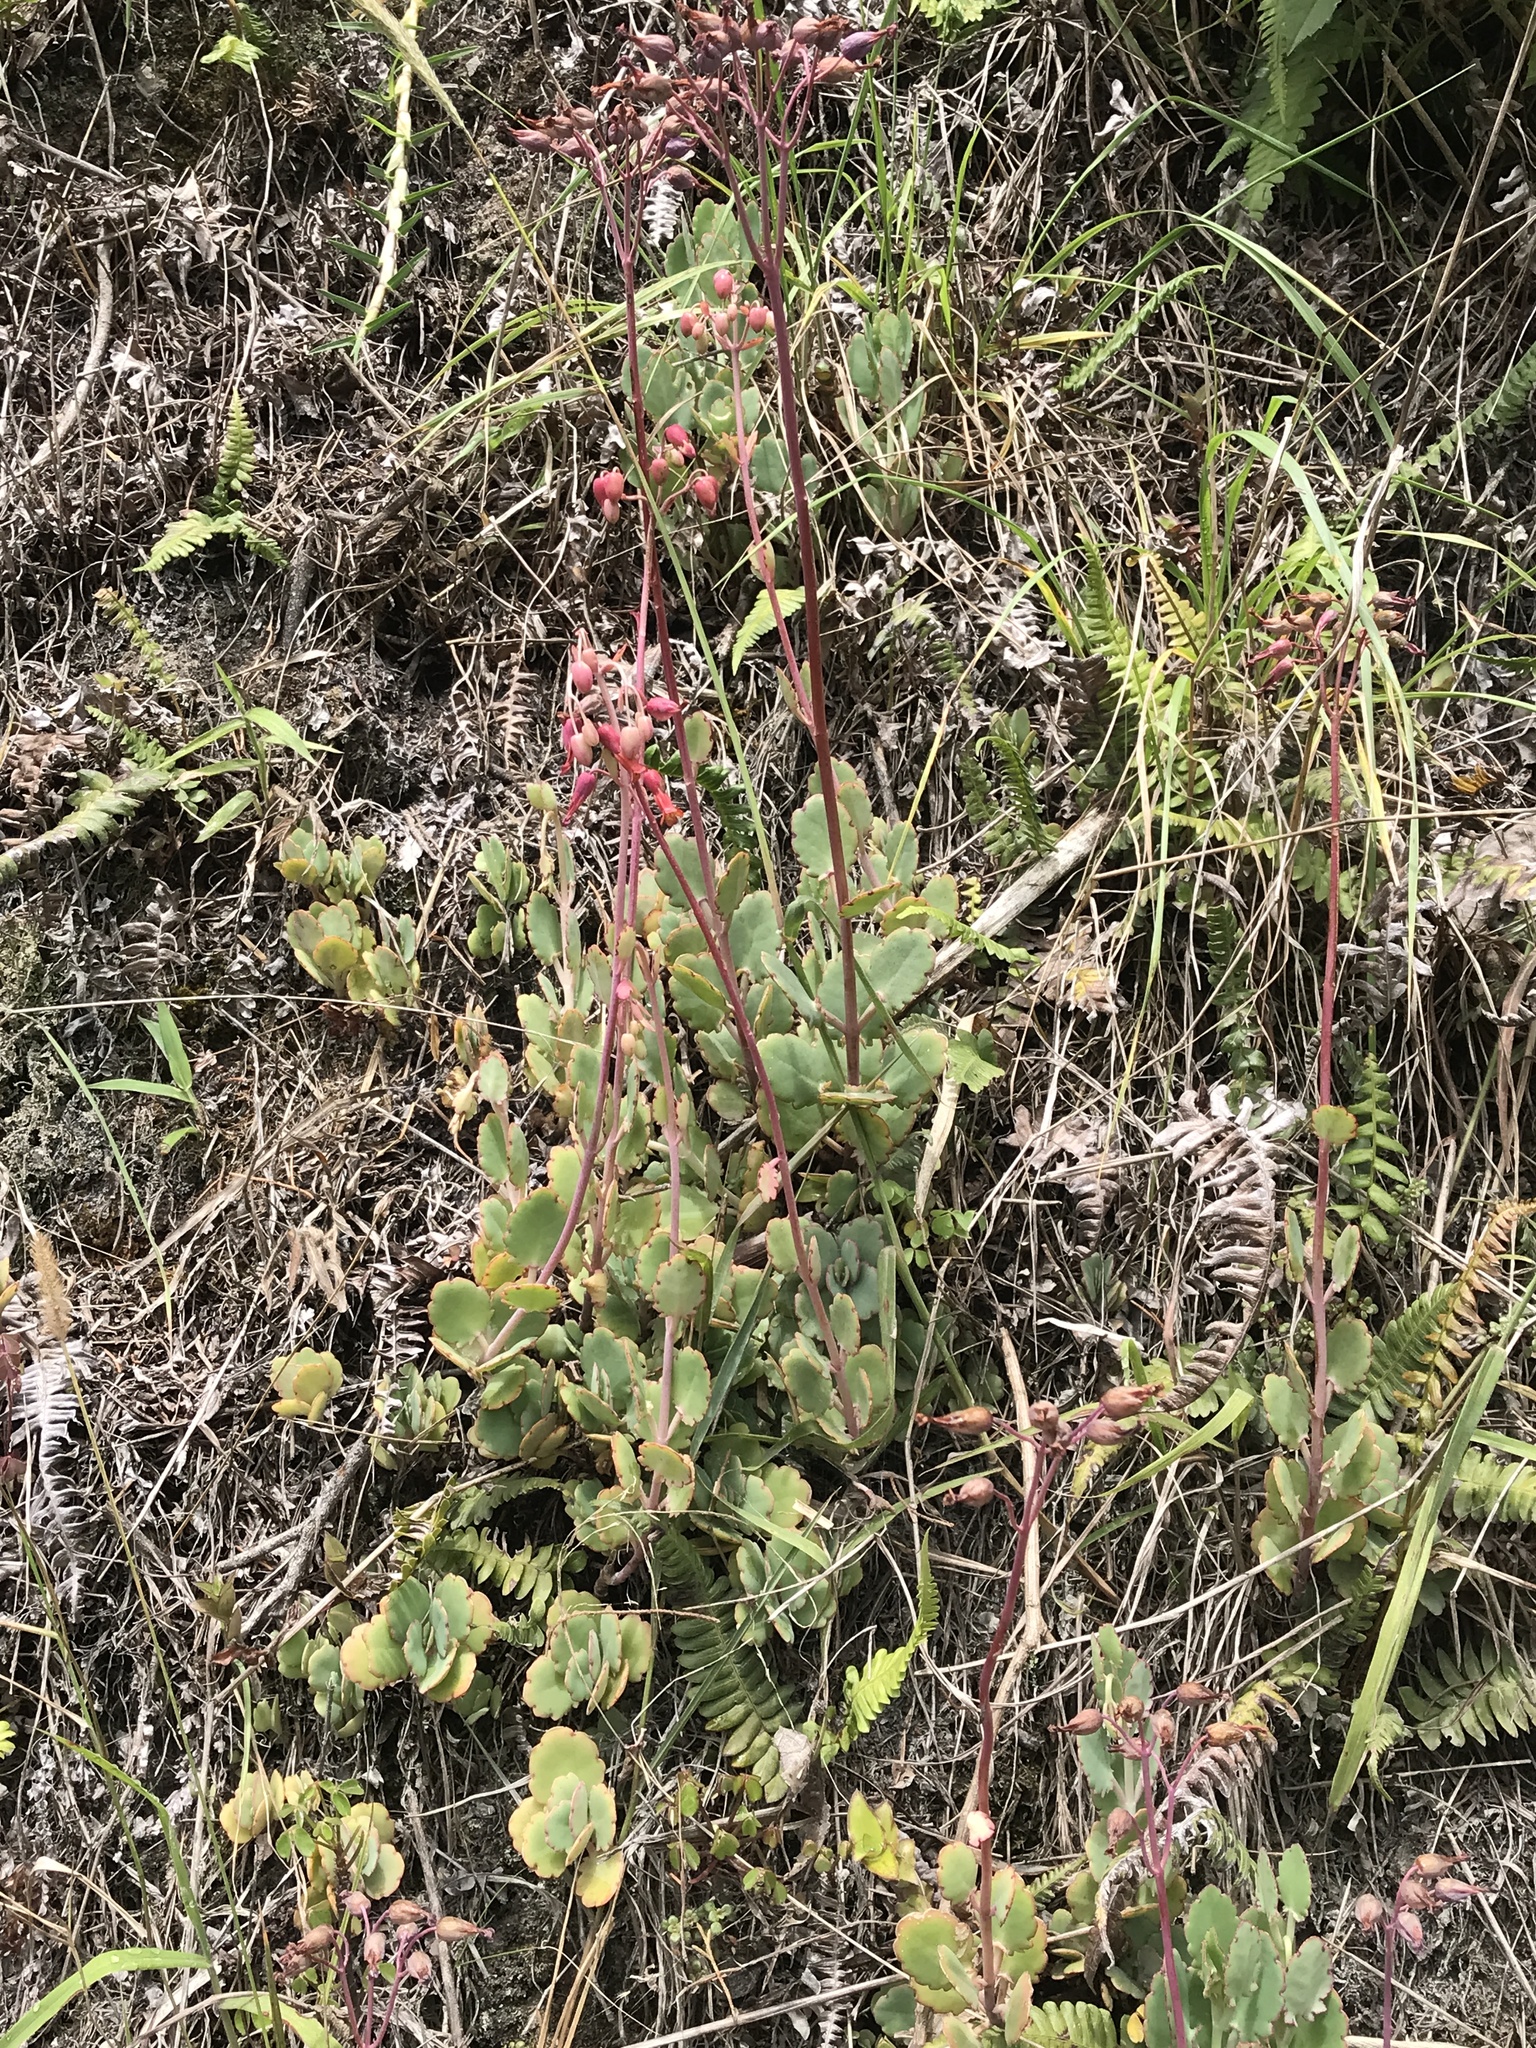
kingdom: Plantae
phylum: Tracheophyta
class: Magnoliopsida
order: Saxifragales
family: Crassulaceae
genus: Kalanchoe
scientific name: Kalanchoe laxiflora
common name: Milky widow's thrill
